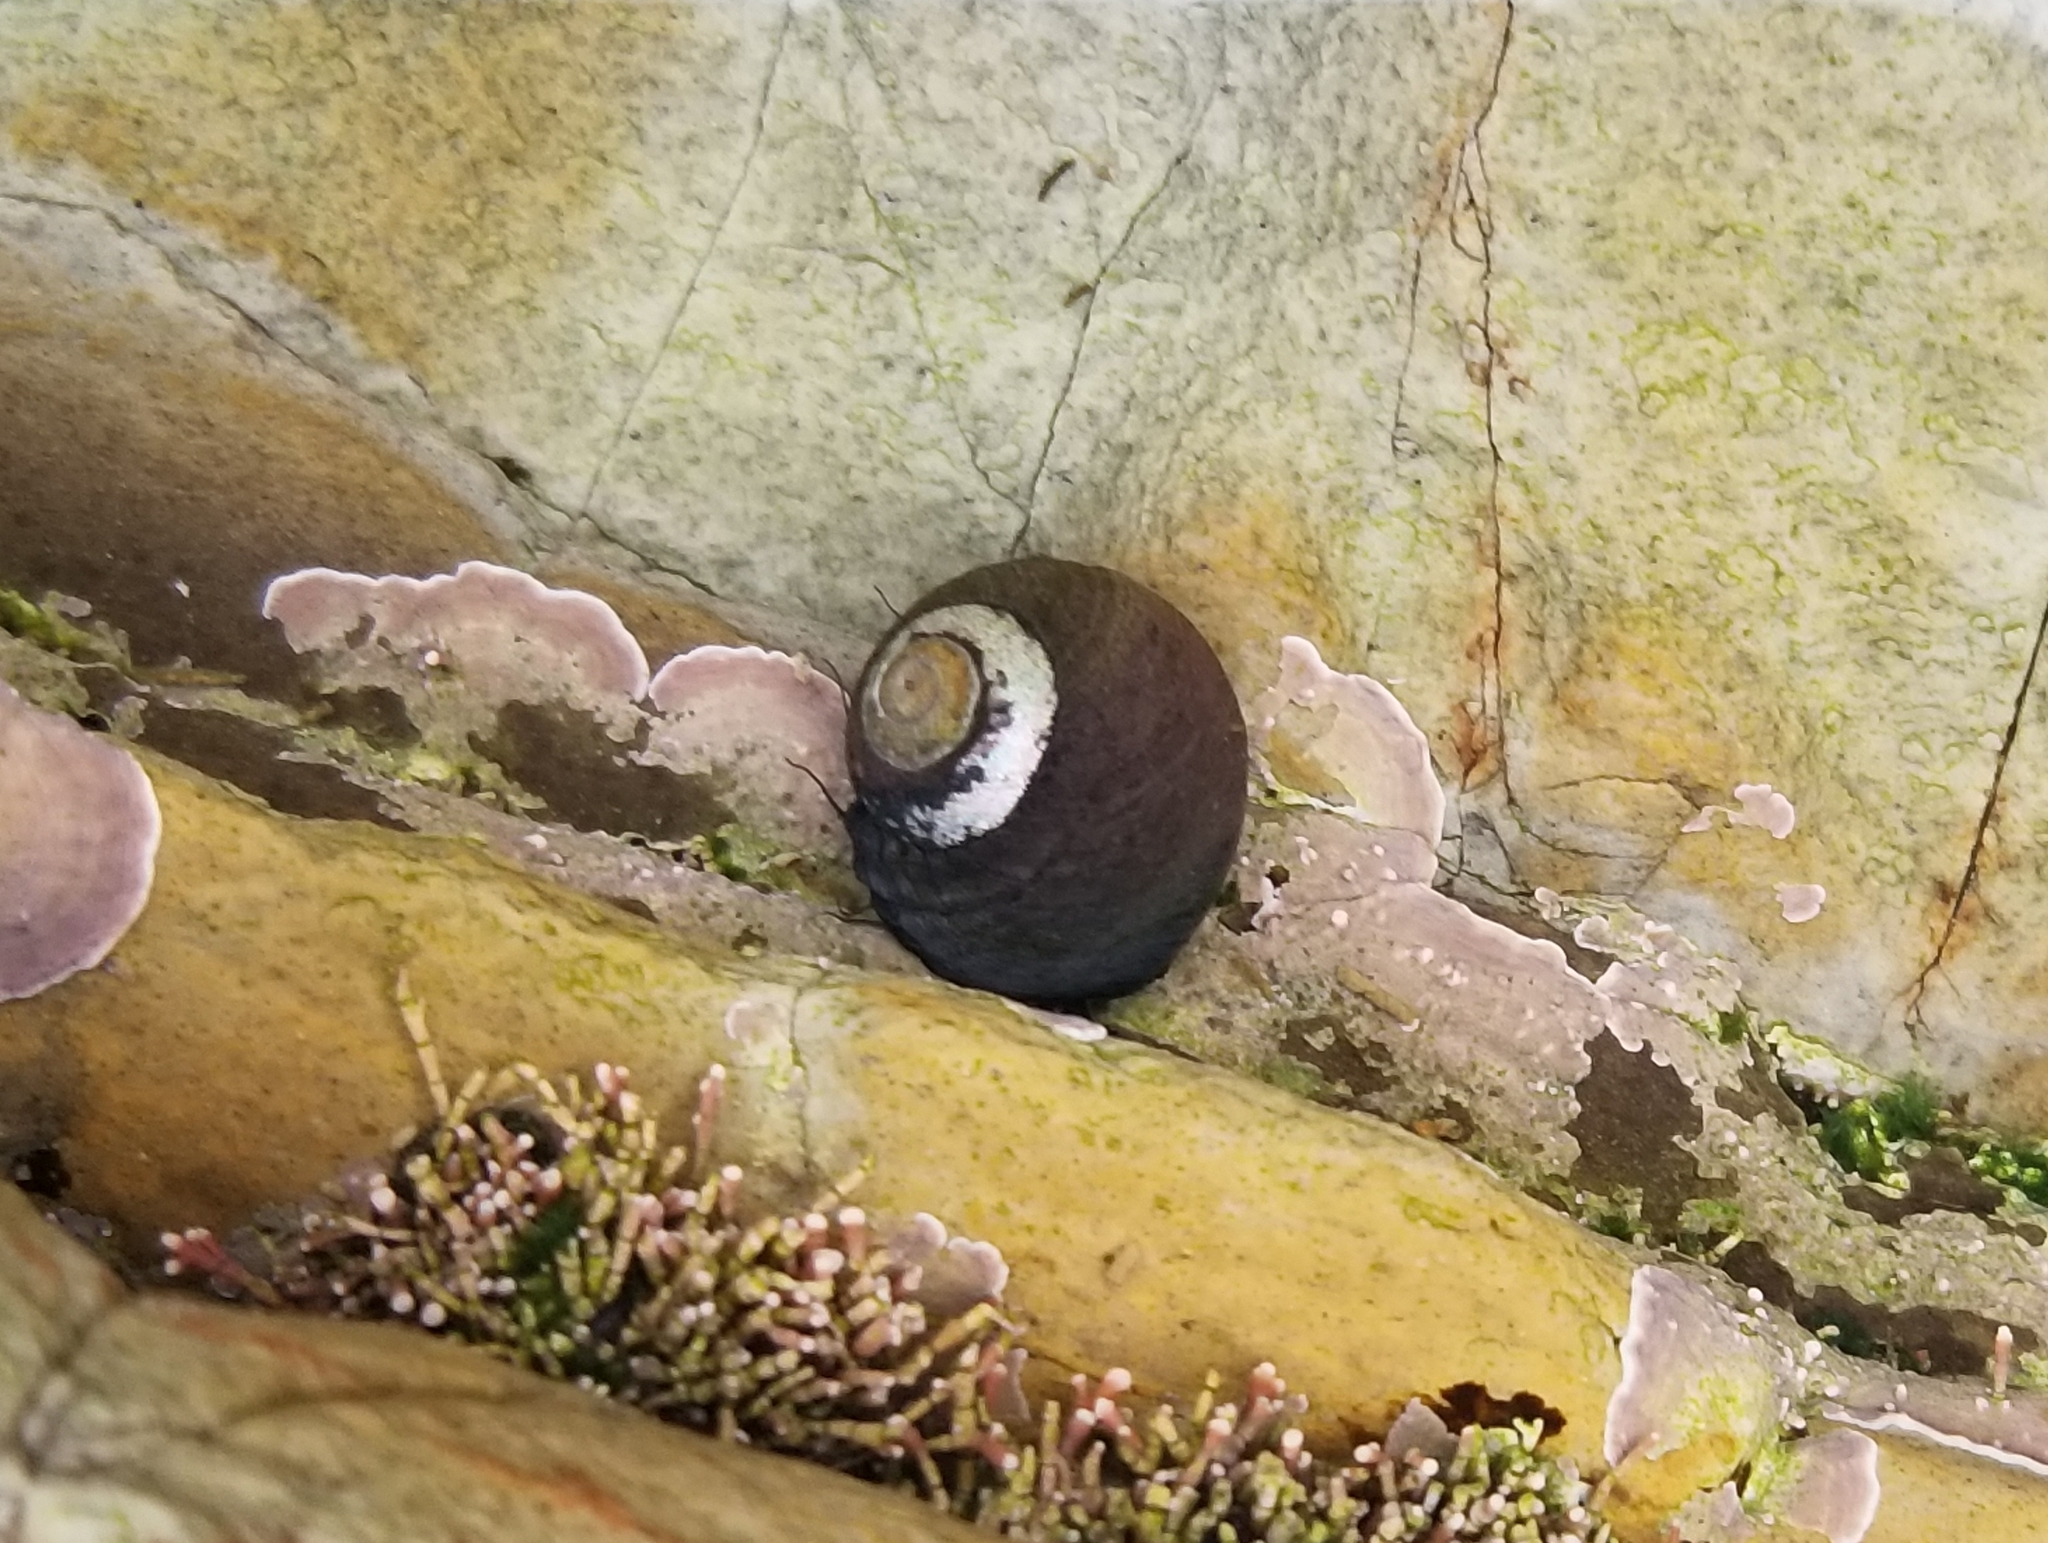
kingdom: Animalia
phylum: Mollusca
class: Gastropoda
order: Trochida
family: Tegulidae
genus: Tegula
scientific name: Tegula funebralis
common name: Black tegula
